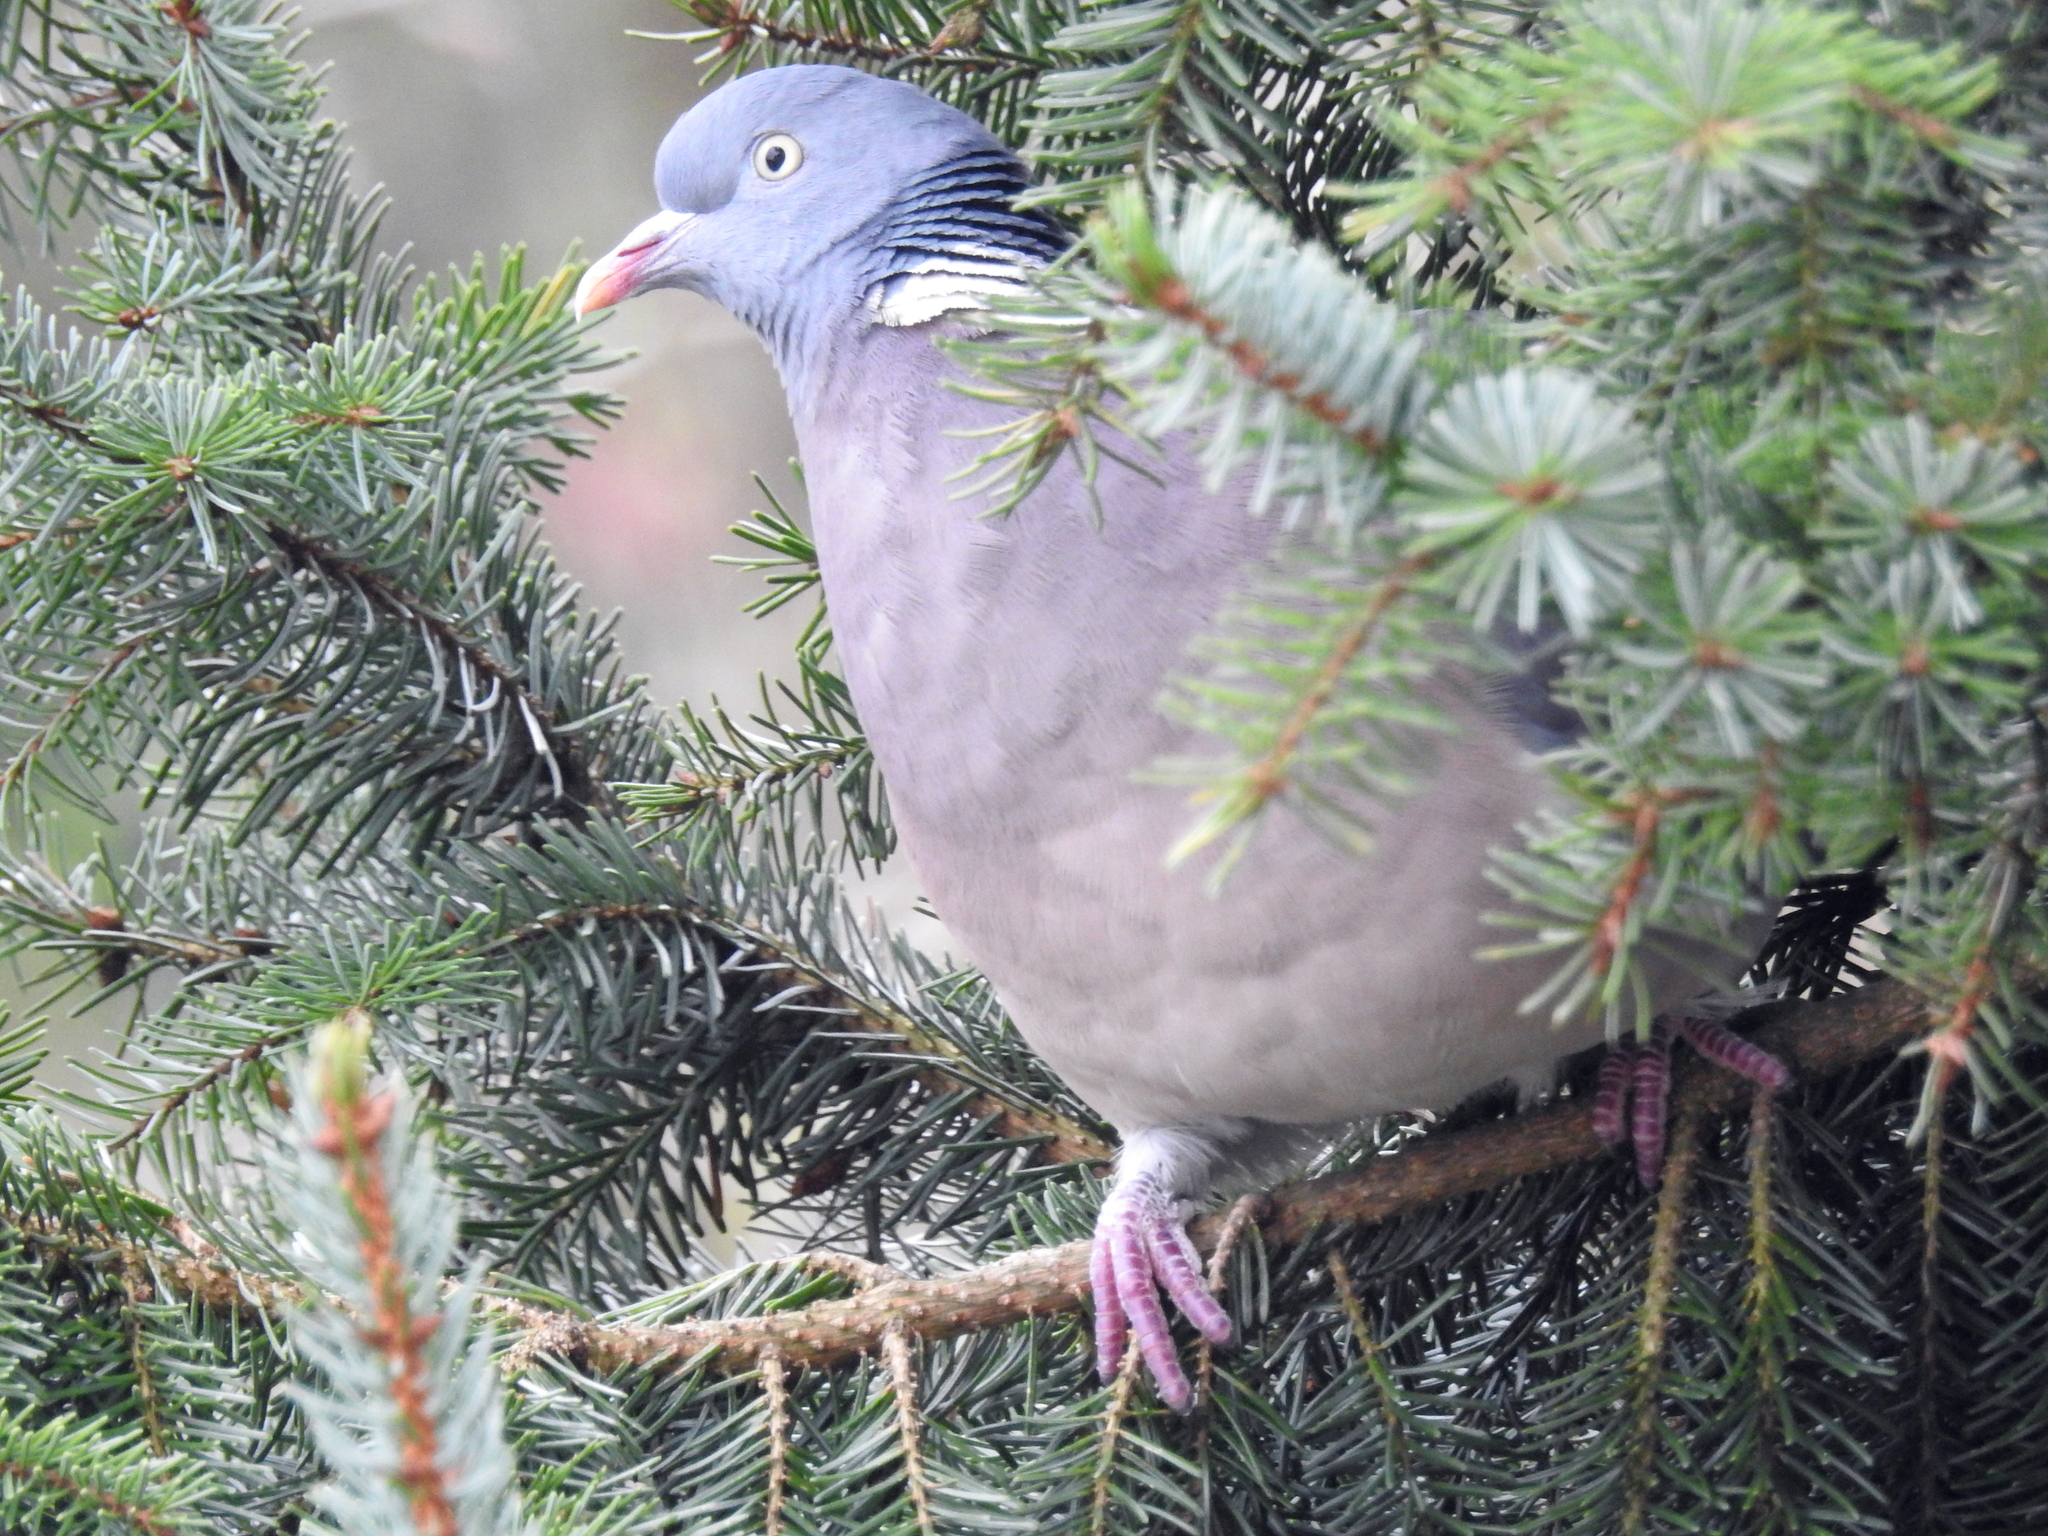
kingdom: Animalia
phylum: Chordata
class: Aves
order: Columbiformes
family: Columbidae
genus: Columba
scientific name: Columba palumbus
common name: Common wood pigeon
